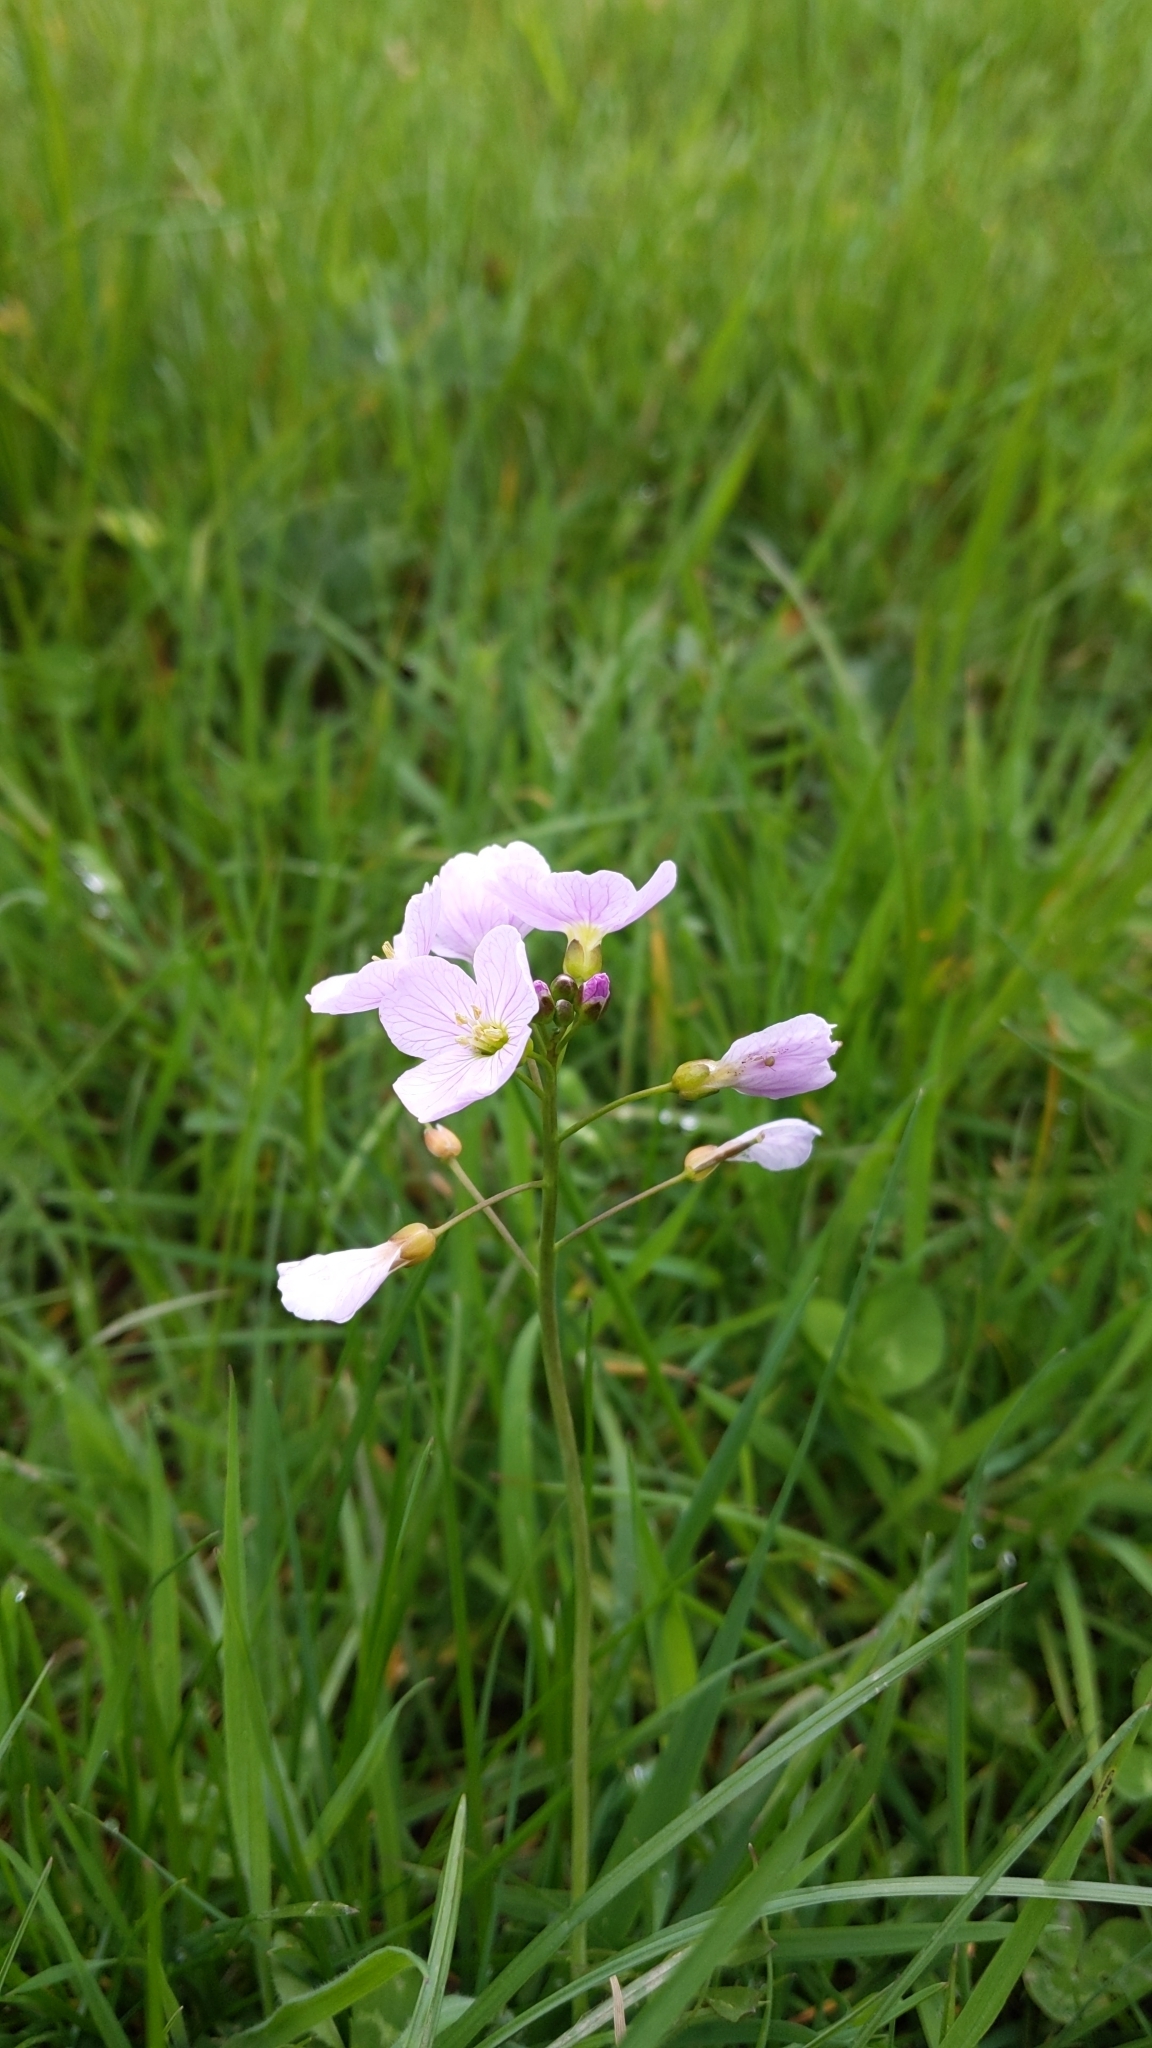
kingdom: Plantae
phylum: Tracheophyta
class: Magnoliopsida
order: Brassicales
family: Brassicaceae
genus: Cardamine
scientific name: Cardamine pratensis
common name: Cuckoo flower
